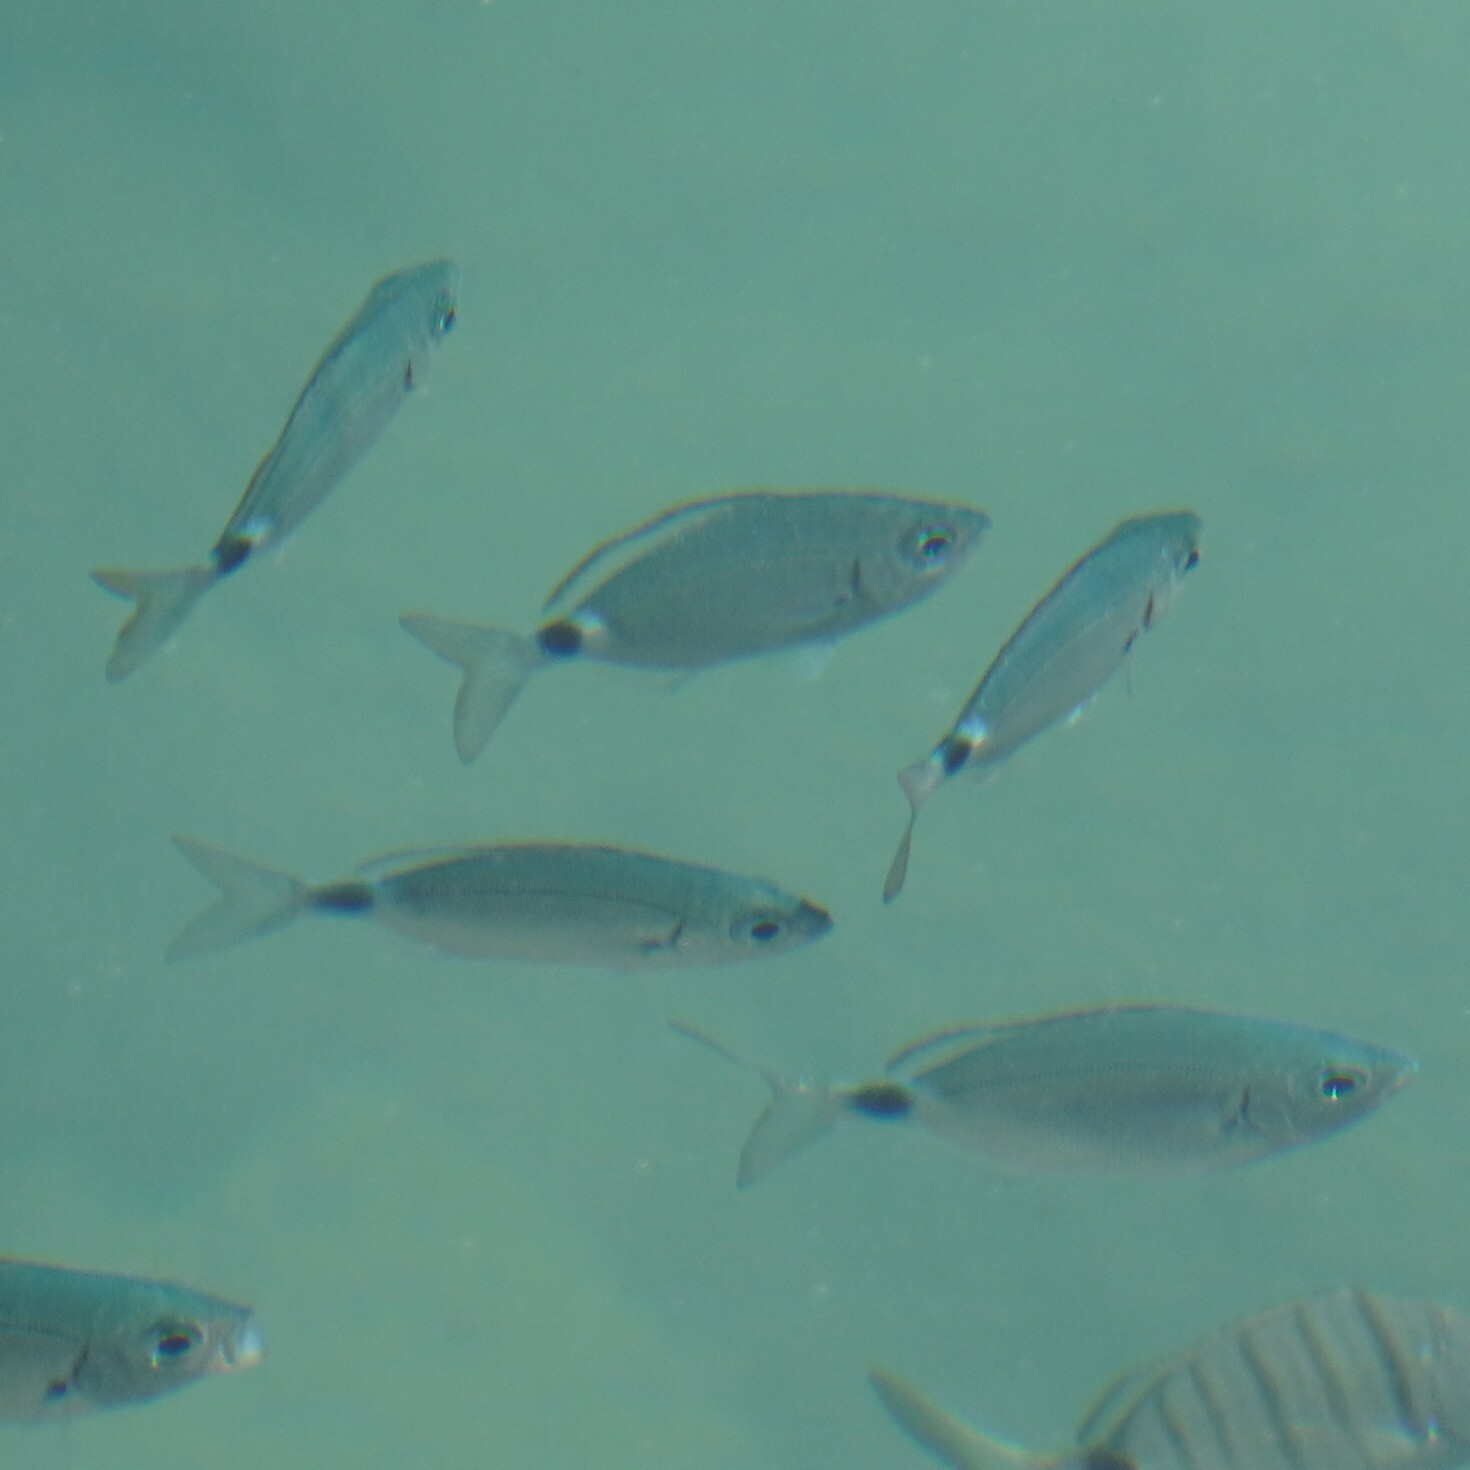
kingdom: Animalia
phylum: Chordata
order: Perciformes
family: Sparidae
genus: Oblada
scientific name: Oblada melanura
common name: Saddled seabream
